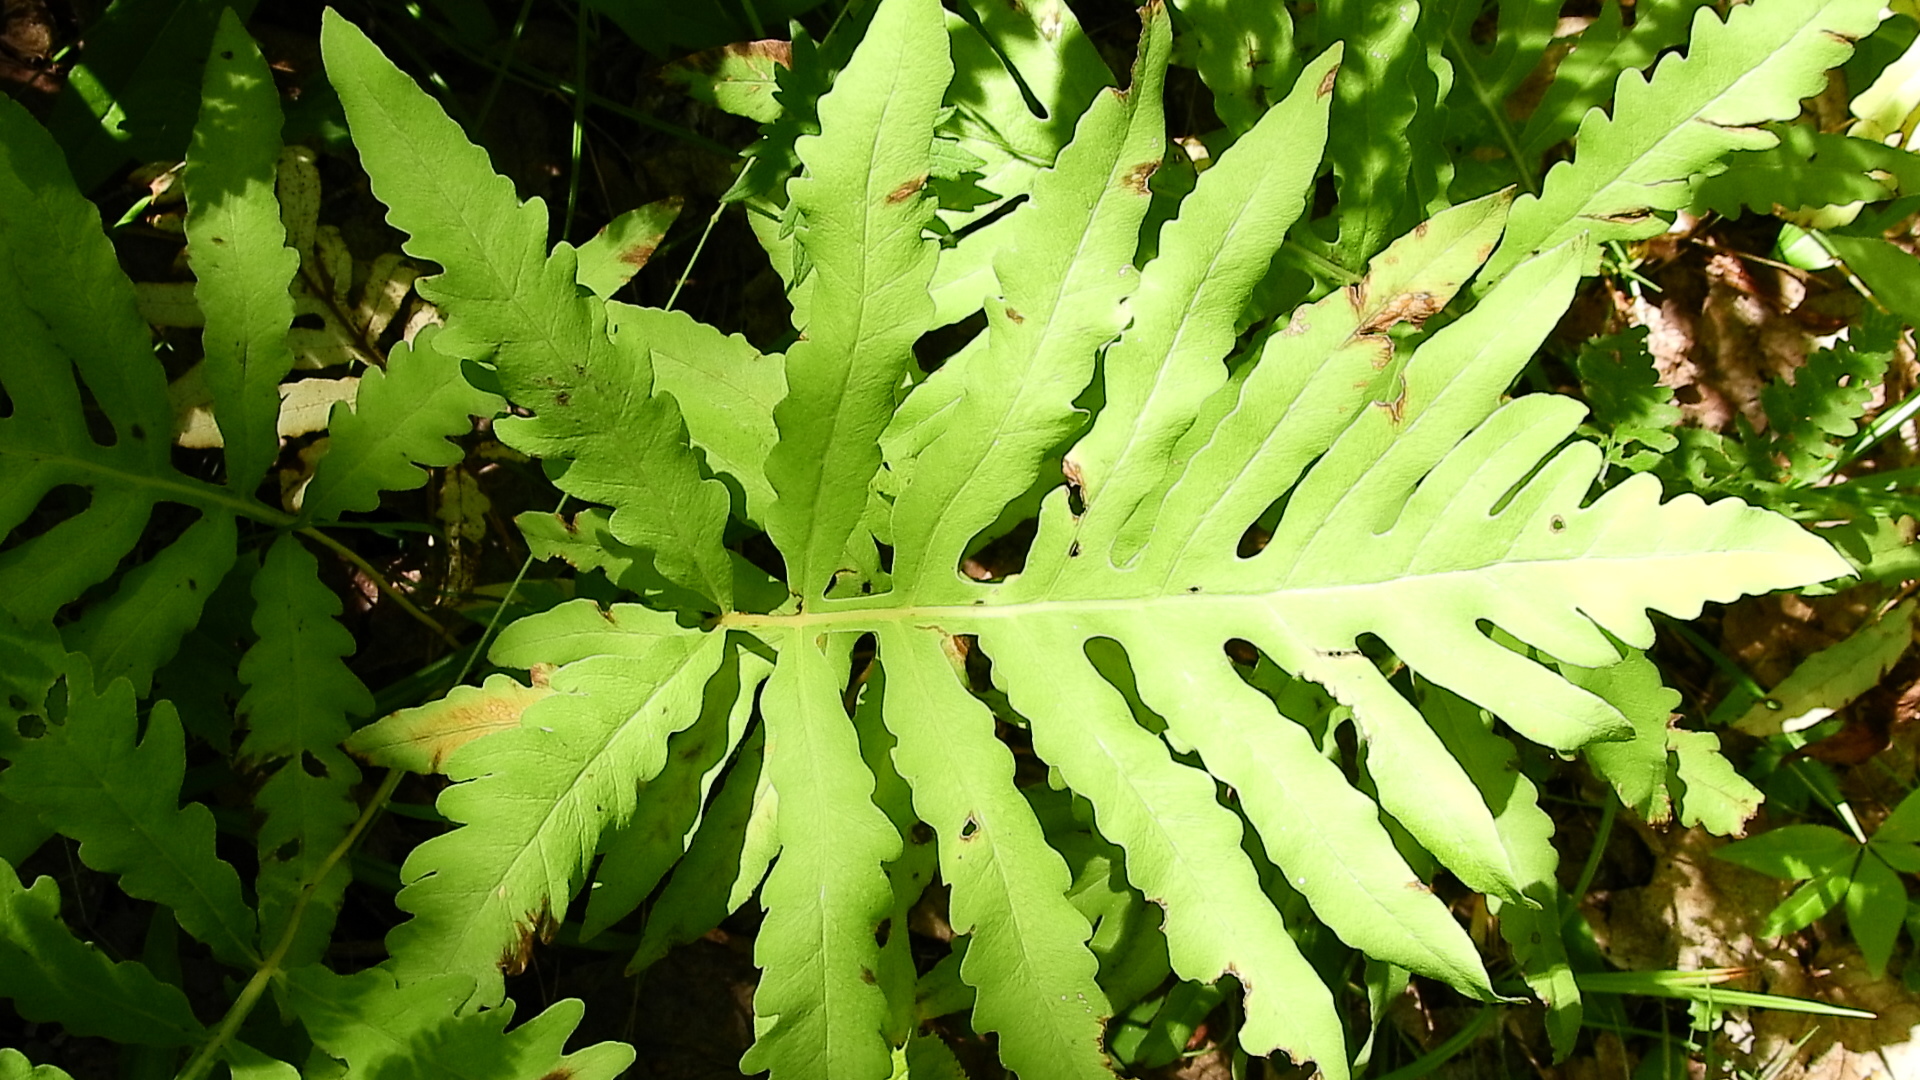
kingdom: Plantae
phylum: Tracheophyta
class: Polypodiopsida
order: Polypodiales
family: Onocleaceae
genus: Onoclea
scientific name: Onoclea sensibilis
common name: Sensitive fern
